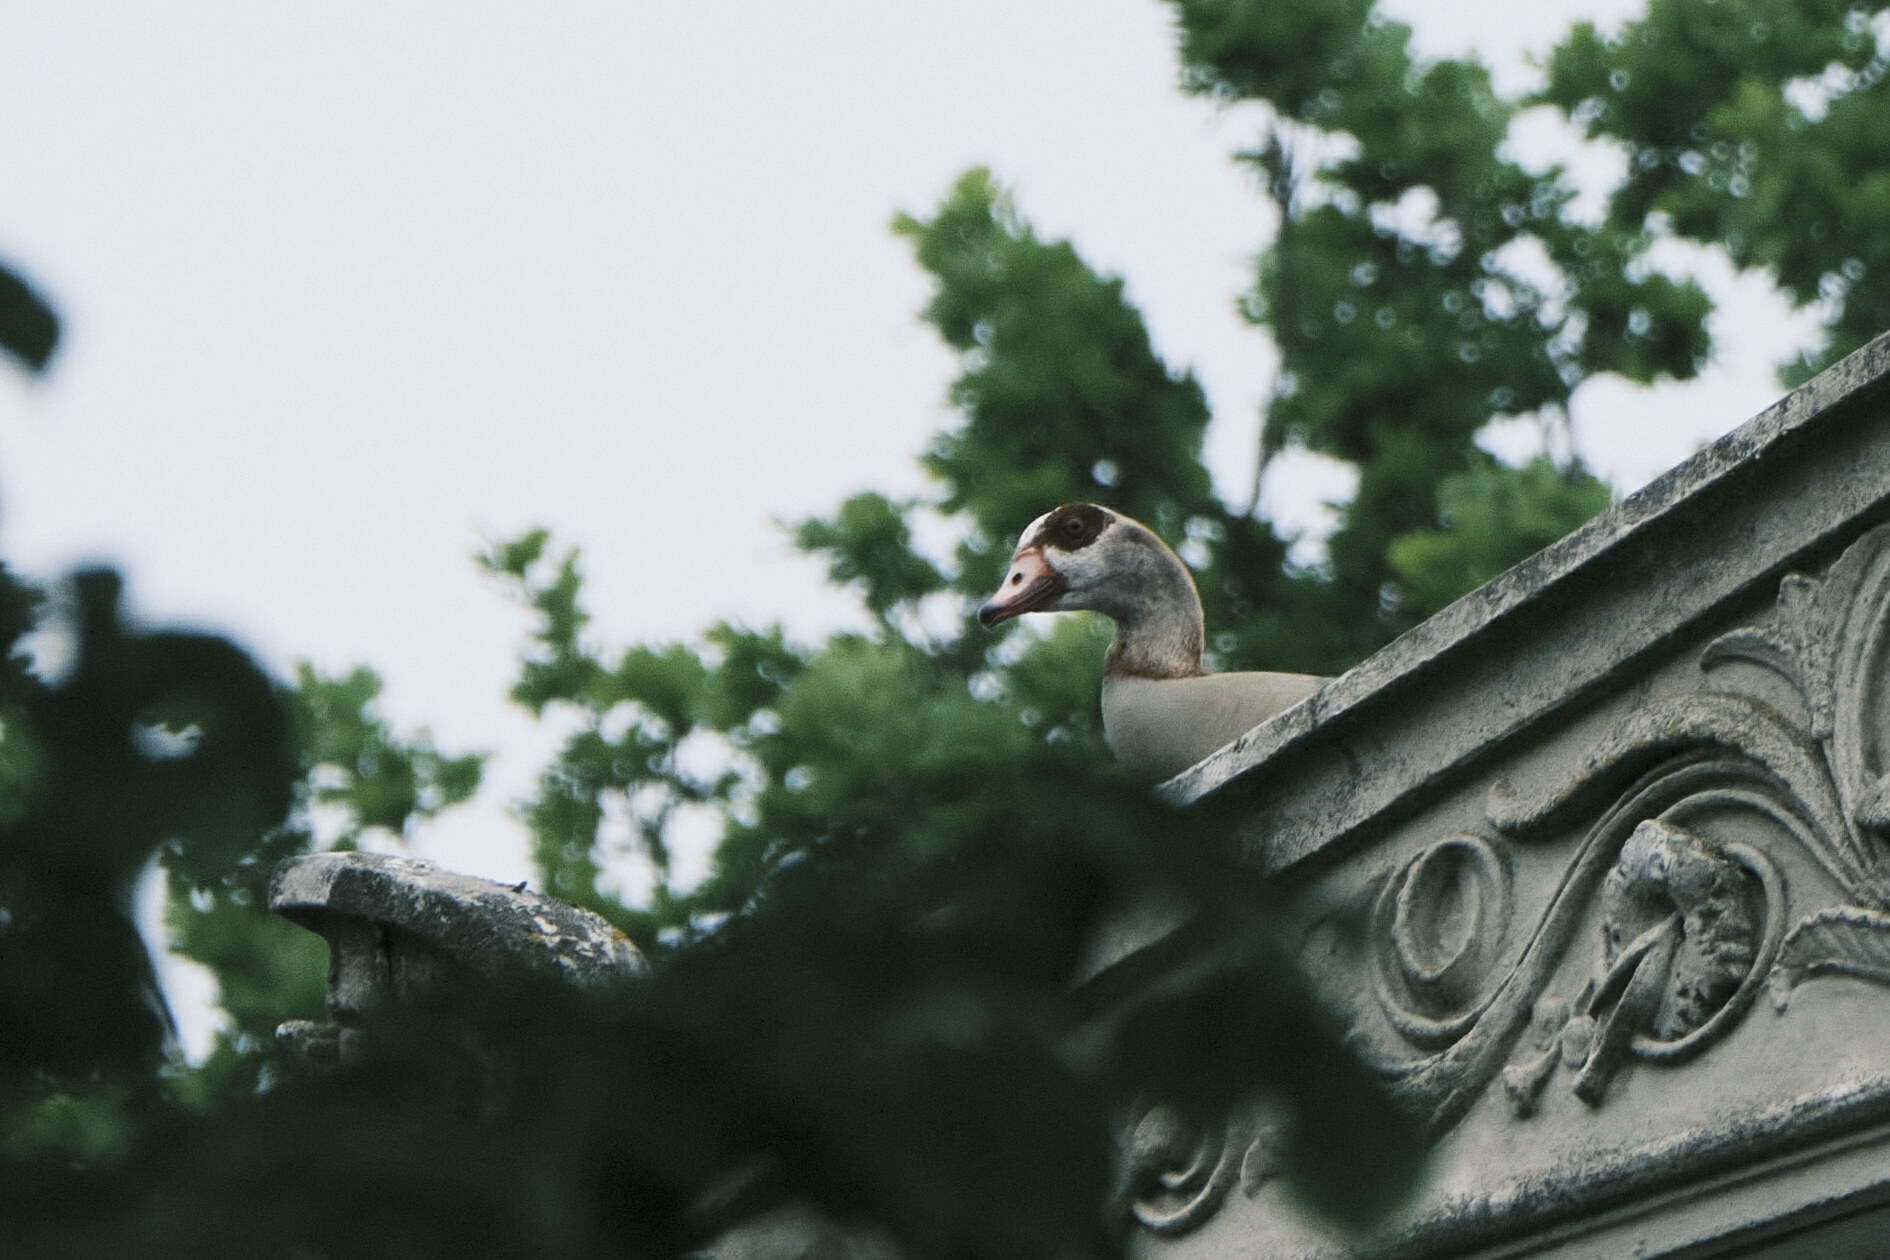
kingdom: Animalia
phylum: Chordata
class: Aves
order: Anseriformes
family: Anatidae
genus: Alopochen
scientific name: Alopochen aegyptiaca
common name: Egyptian goose
